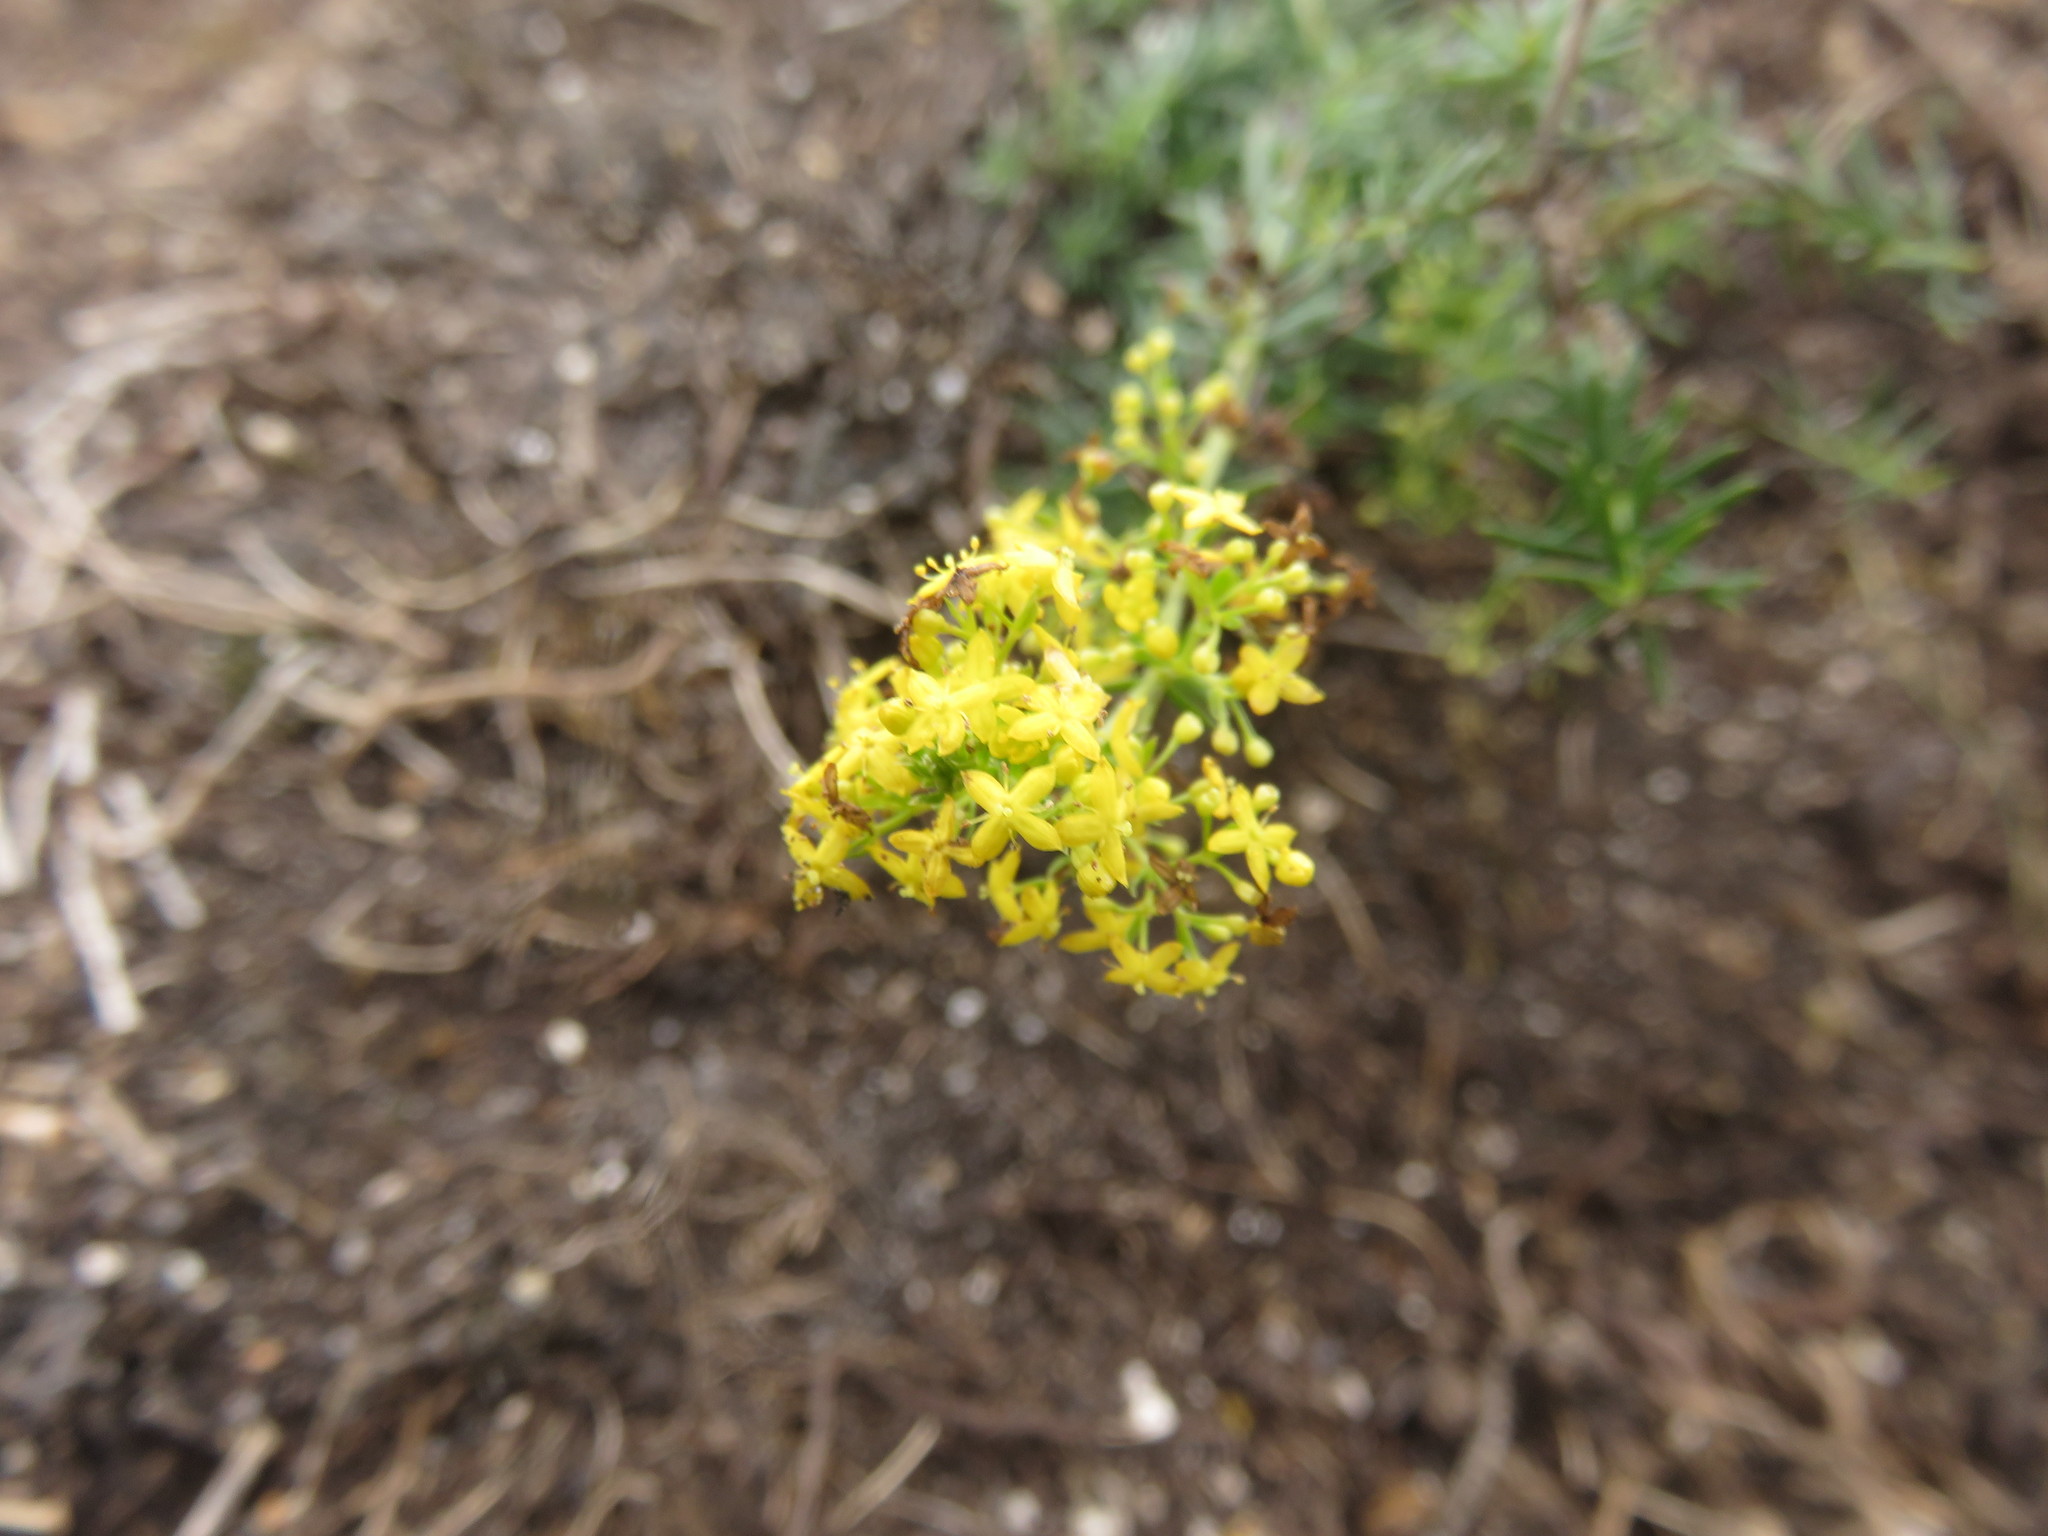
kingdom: Plantae
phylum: Tracheophyta
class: Magnoliopsida
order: Gentianales
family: Rubiaceae
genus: Galium
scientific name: Galium verum
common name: Lady's bedstraw
